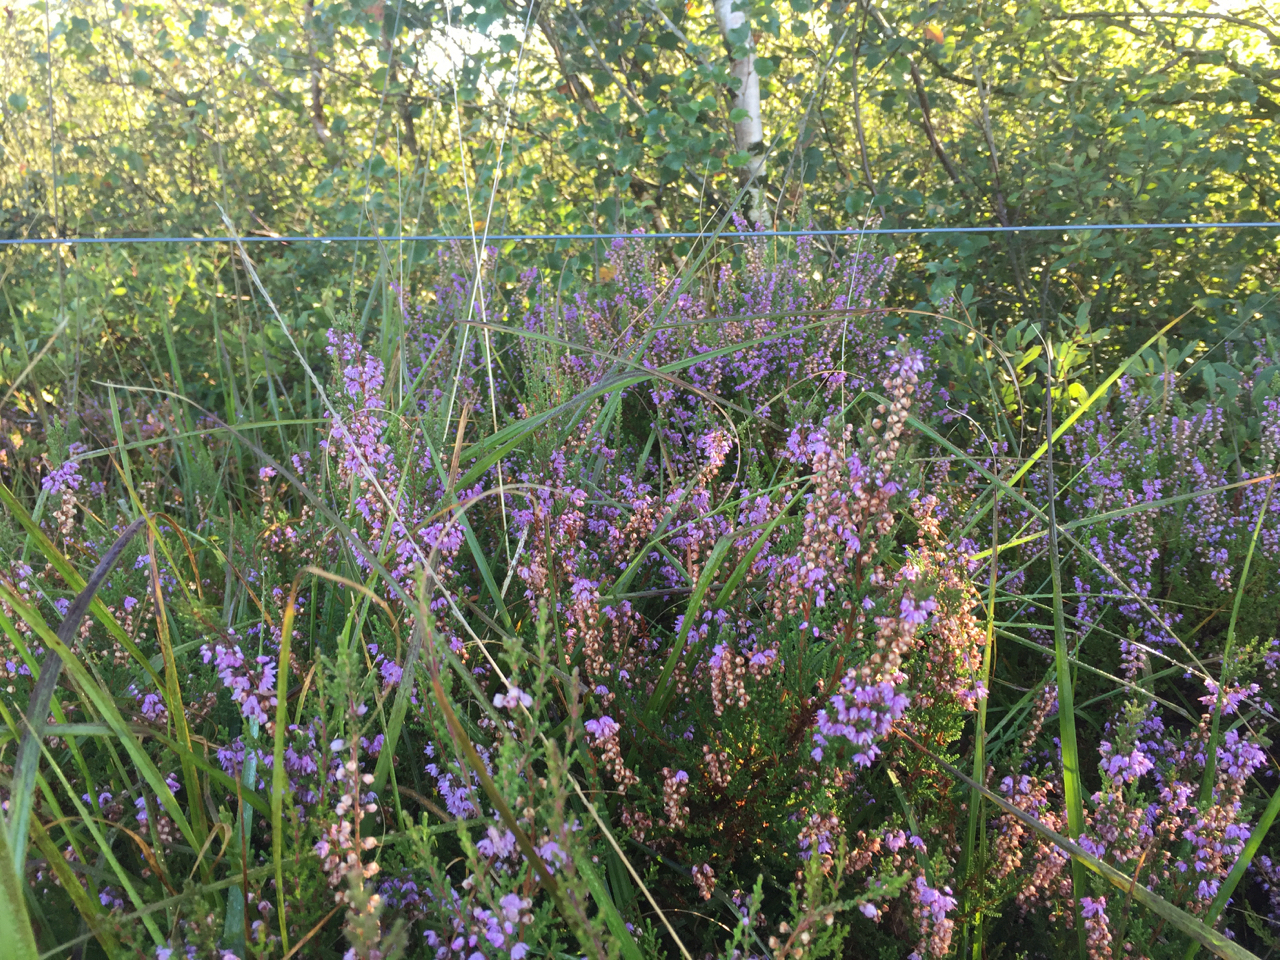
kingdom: Plantae
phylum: Tracheophyta
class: Magnoliopsida
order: Ericales
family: Ericaceae
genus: Calluna
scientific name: Calluna vulgaris
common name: Heather
